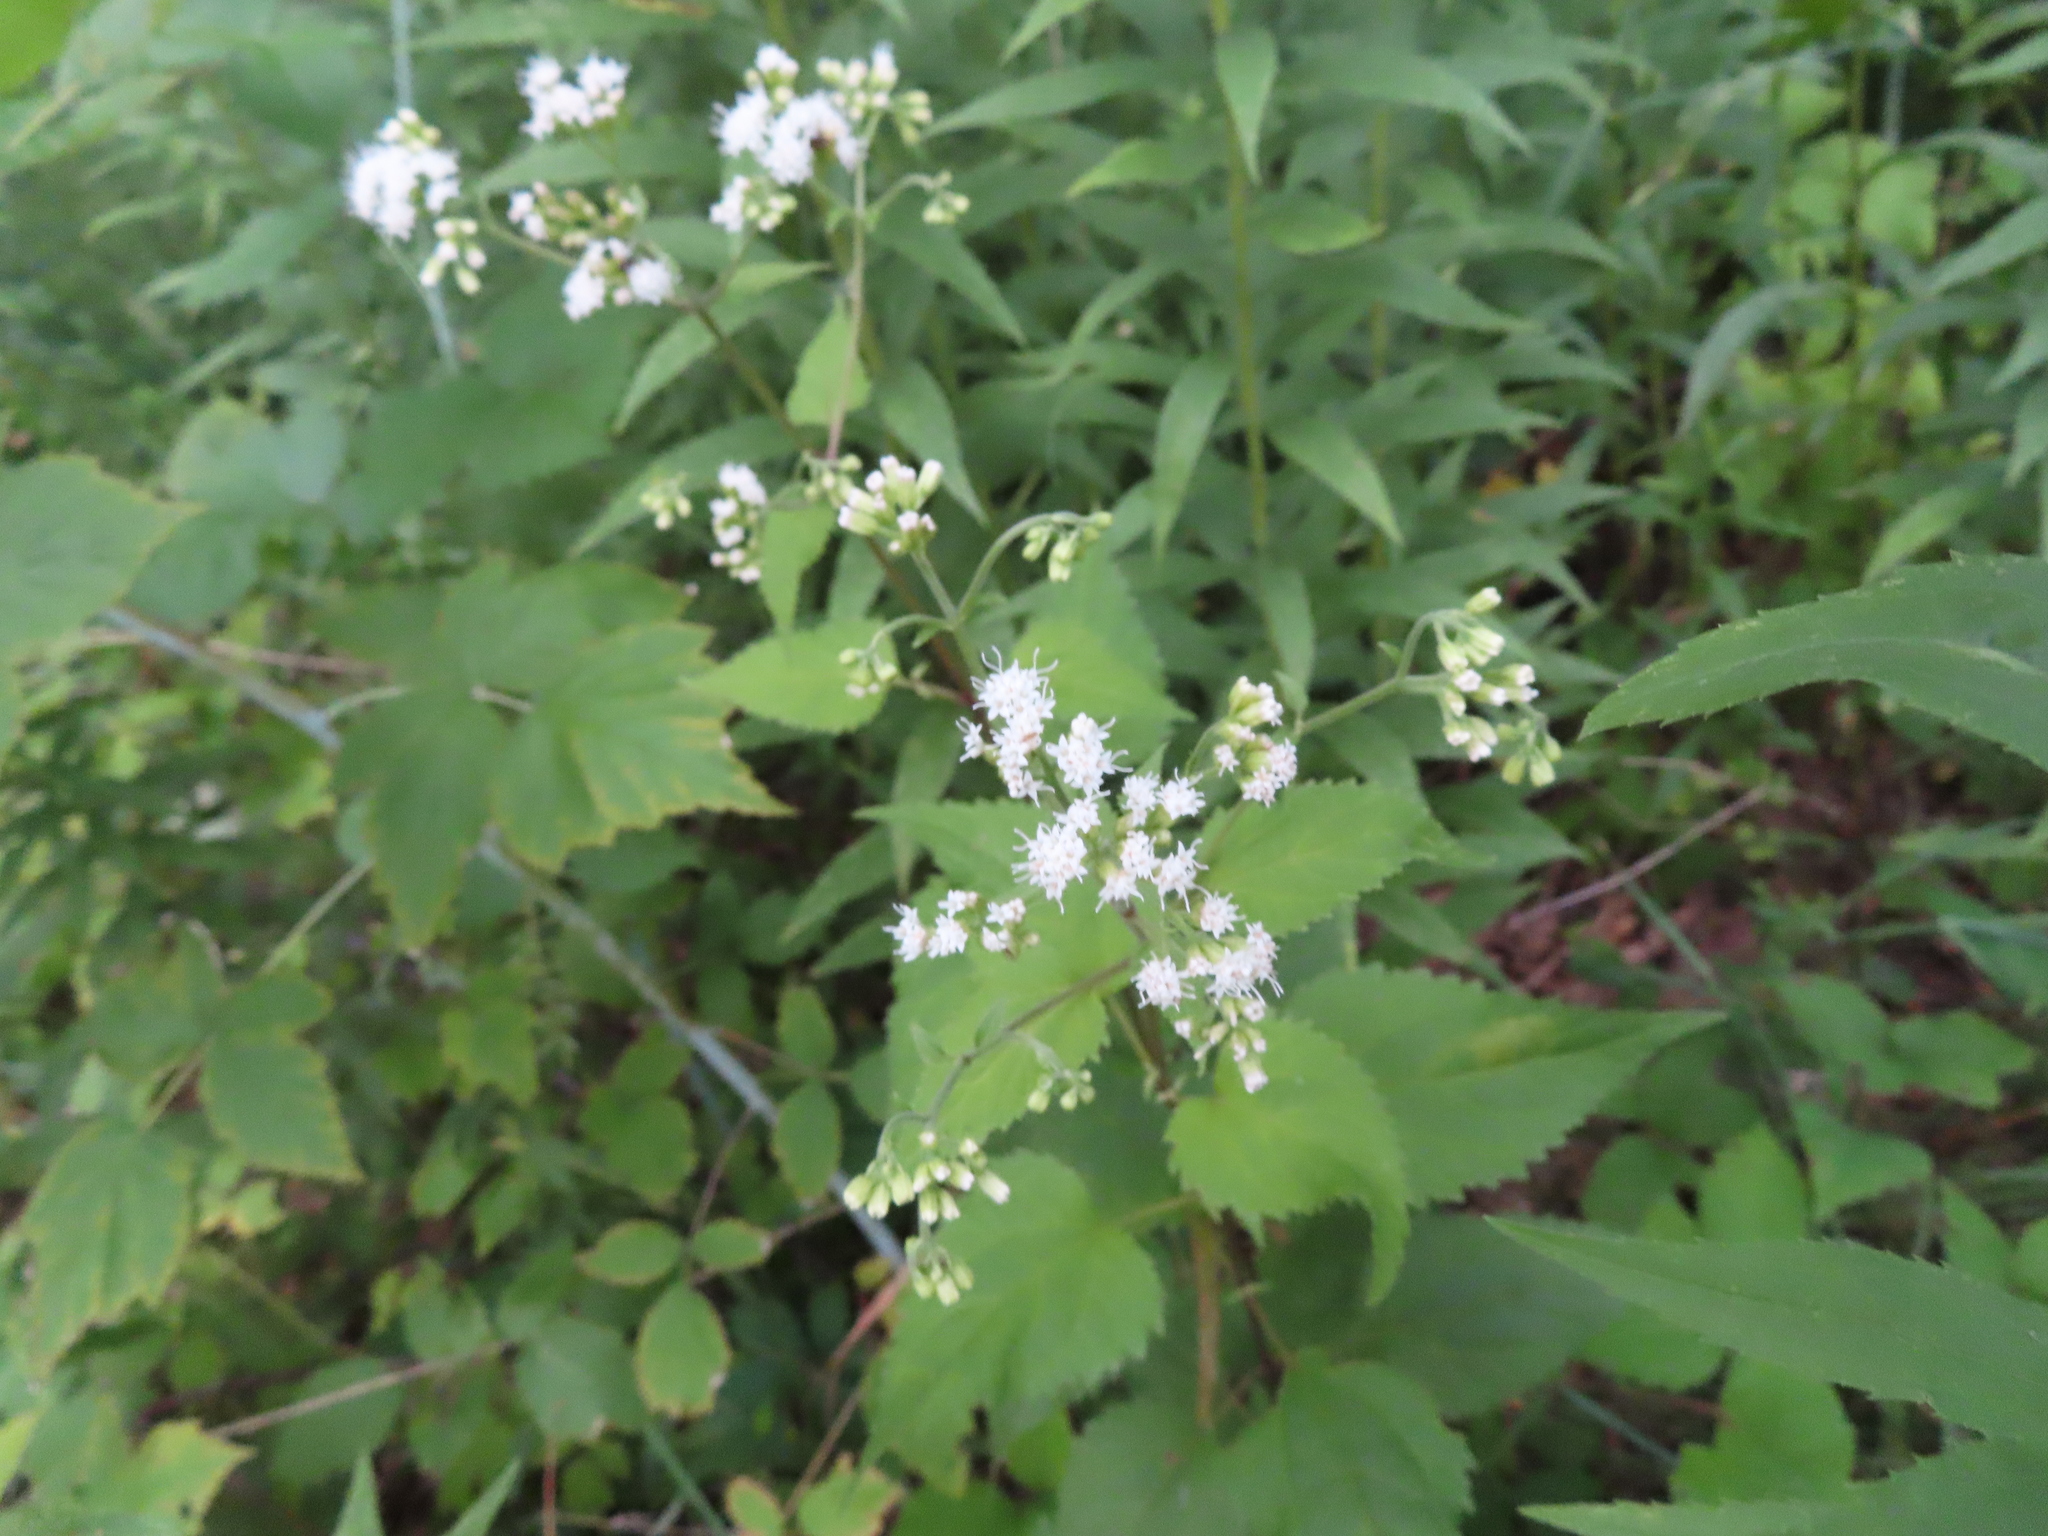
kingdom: Plantae
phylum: Tracheophyta
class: Magnoliopsida
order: Asterales
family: Asteraceae
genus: Ageratina
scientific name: Ageratina altissima
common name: White snakeroot
